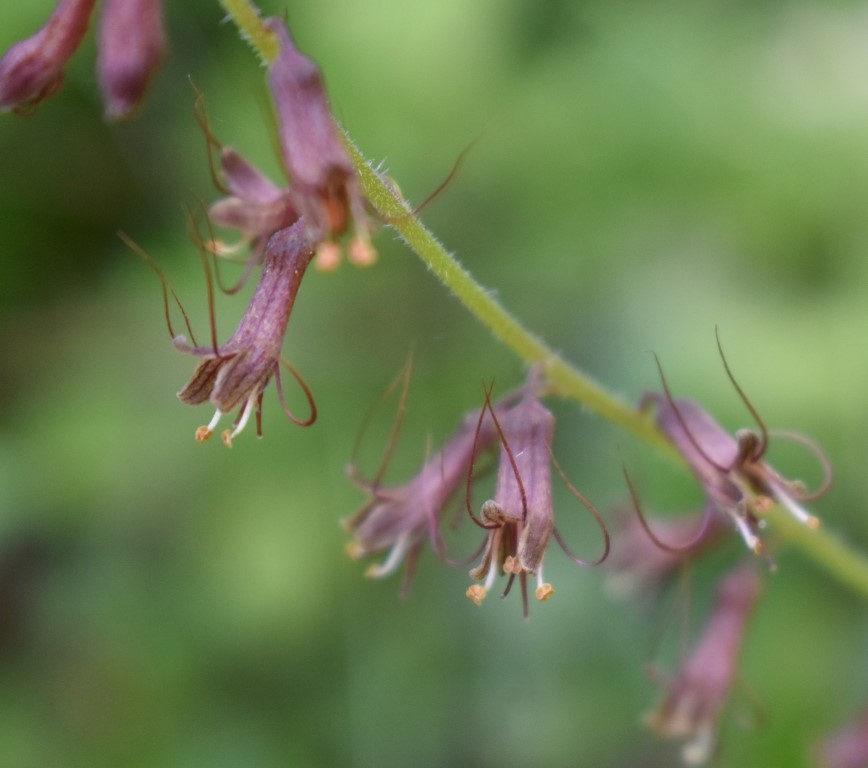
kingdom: Plantae
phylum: Tracheophyta
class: Magnoliopsida
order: Saxifragales
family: Saxifragaceae
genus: Tolmiea
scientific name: Tolmiea diplomenziesii
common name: Youth on age
